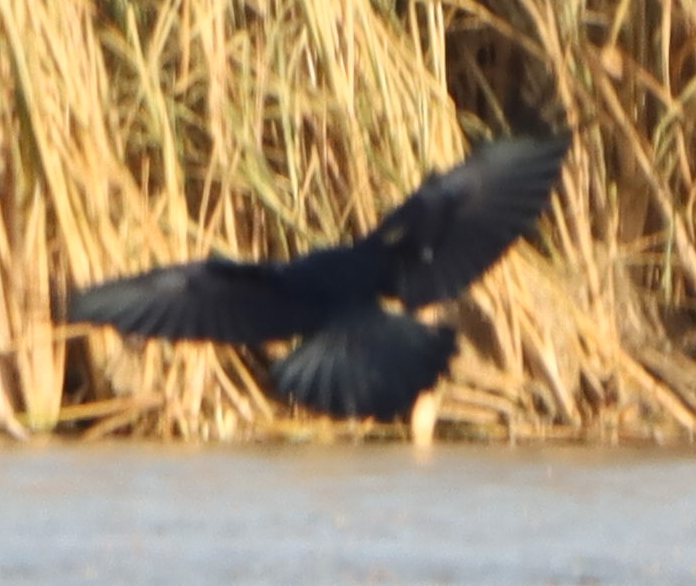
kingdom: Animalia
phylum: Chordata
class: Aves
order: Passeriformes
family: Corvidae
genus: Corvus
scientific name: Corvus corax
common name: Common raven
